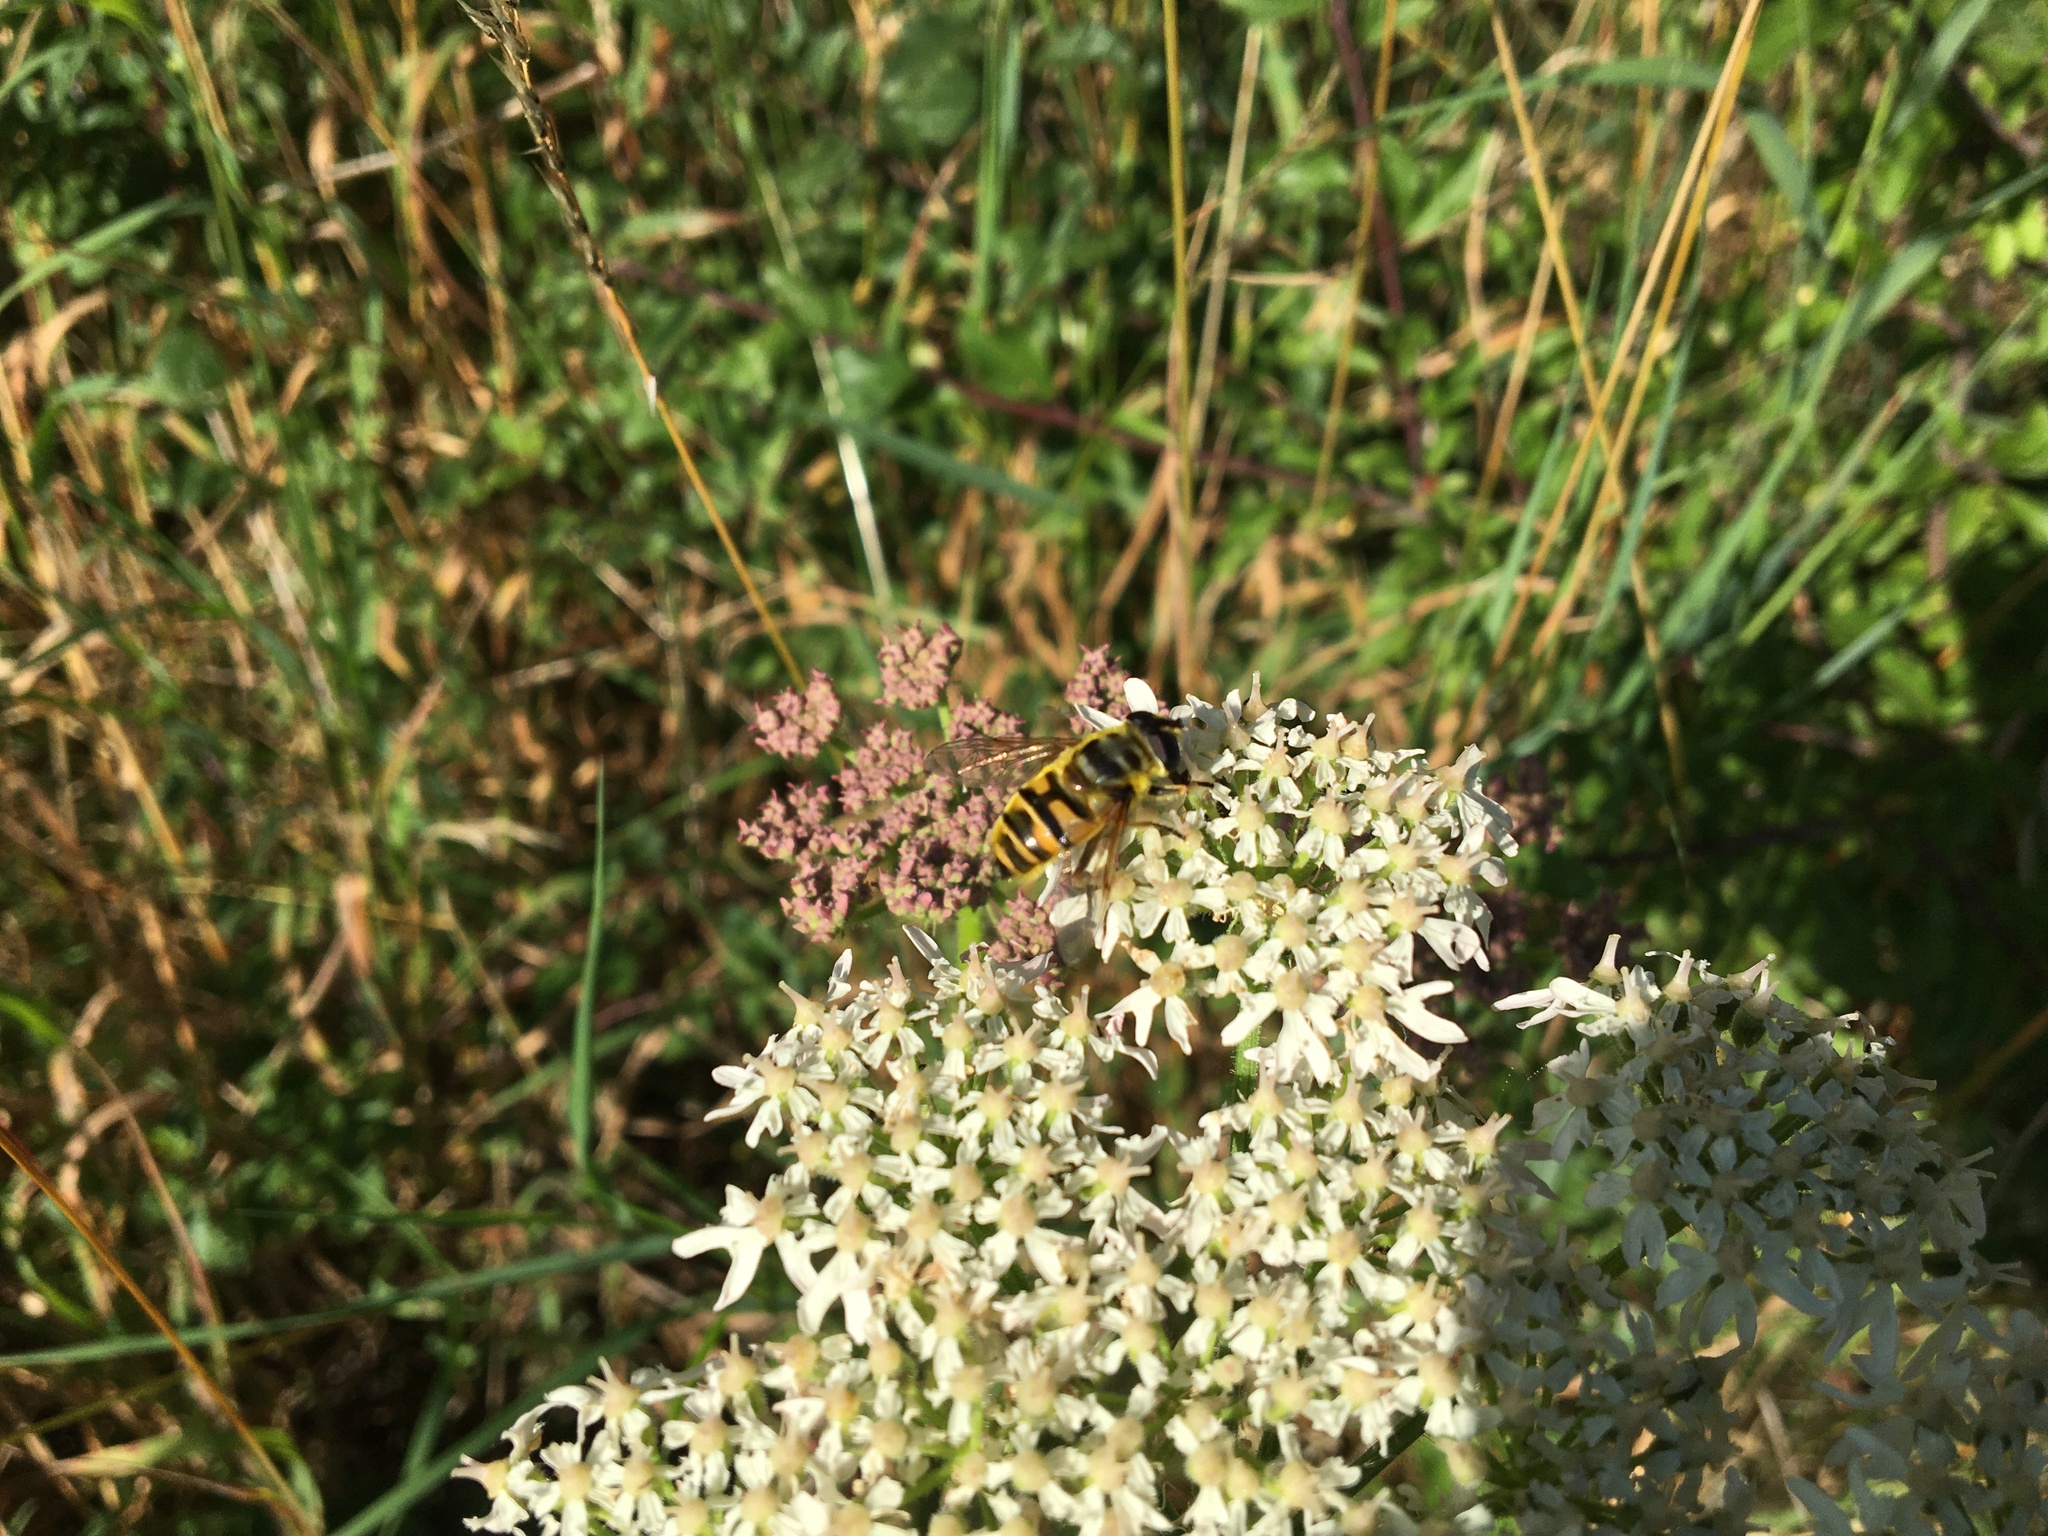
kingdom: Animalia
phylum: Arthropoda
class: Insecta
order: Diptera
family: Syrphidae
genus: Myathropa
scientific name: Myathropa florea
